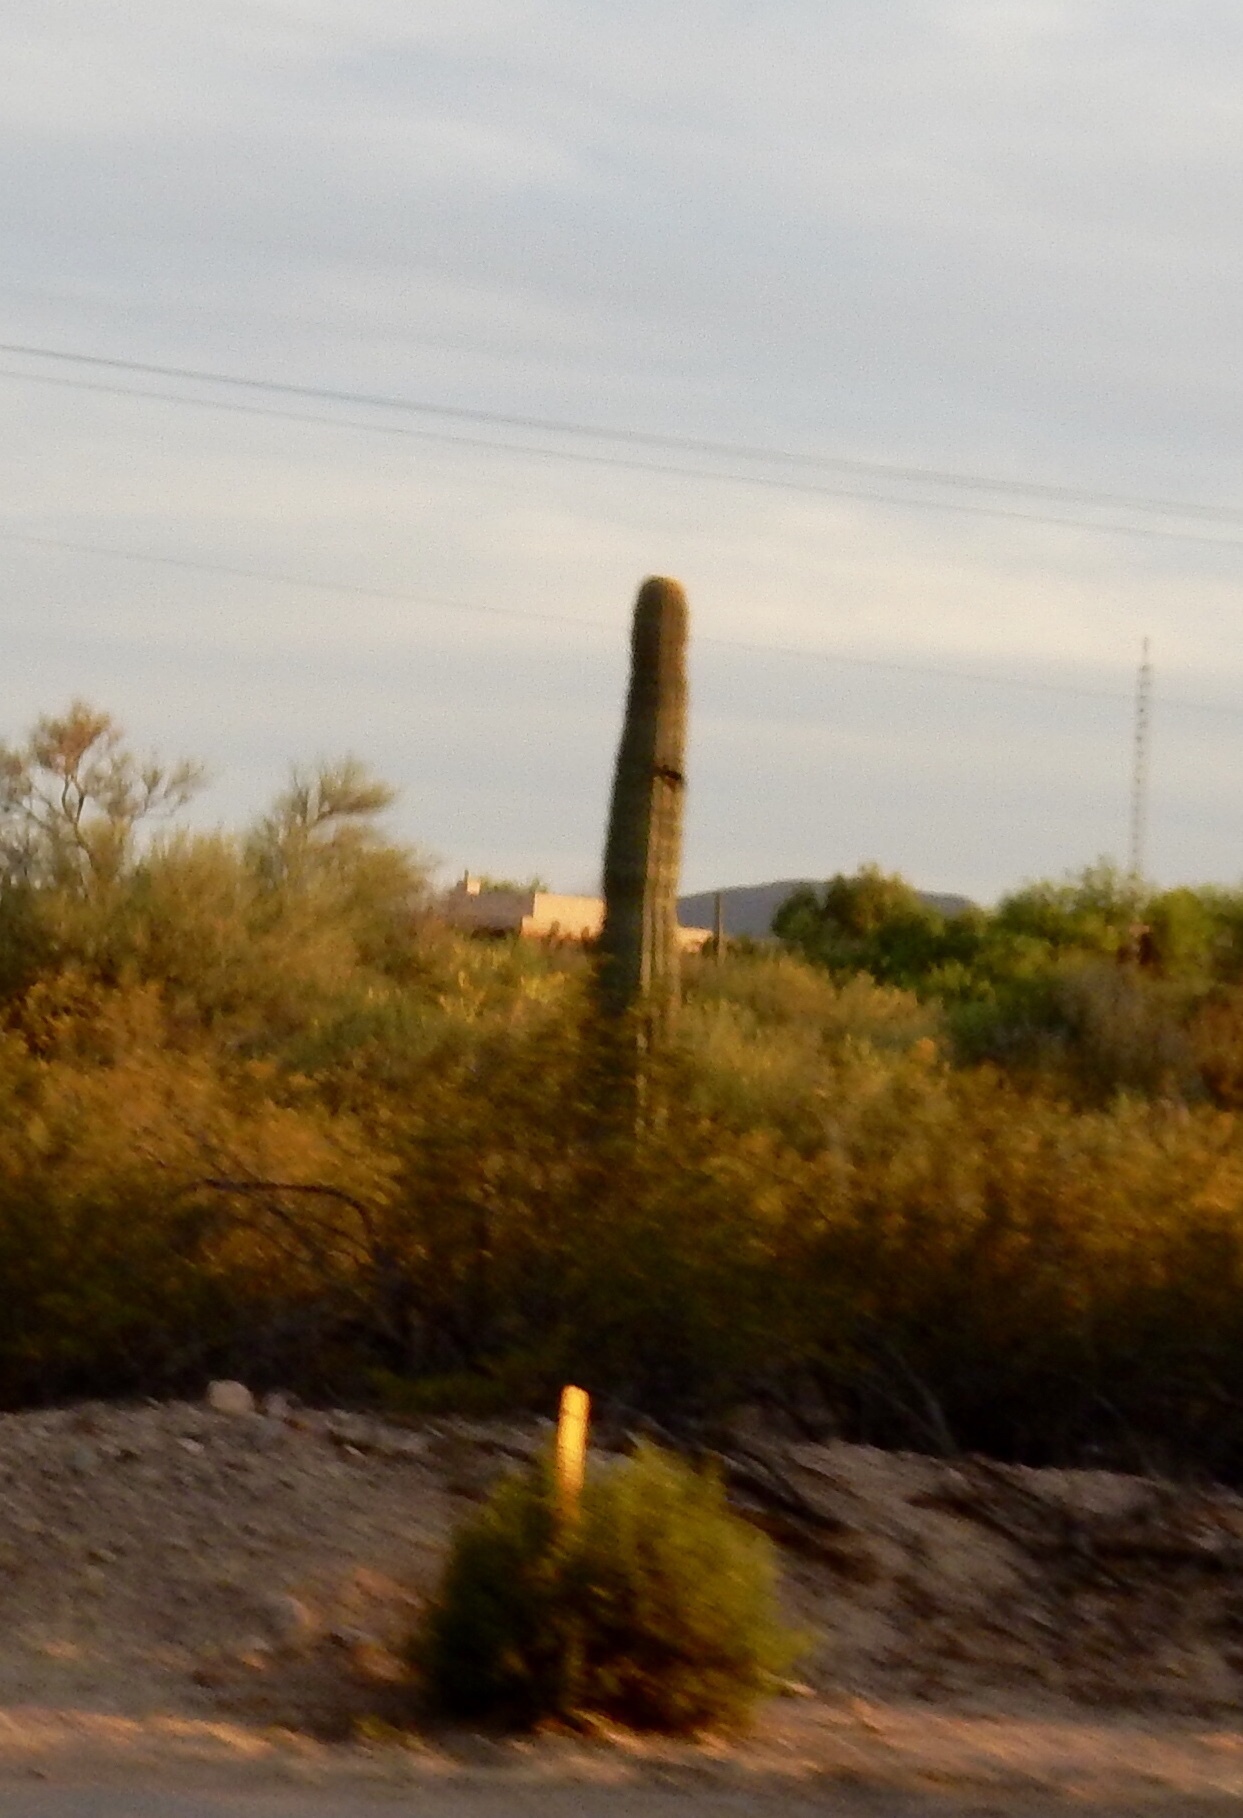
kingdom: Plantae
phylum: Tracheophyta
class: Magnoliopsida
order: Caryophyllales
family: Cactaceae
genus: Carnegiea
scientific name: Carnegiea gigantea
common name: Saguaro
